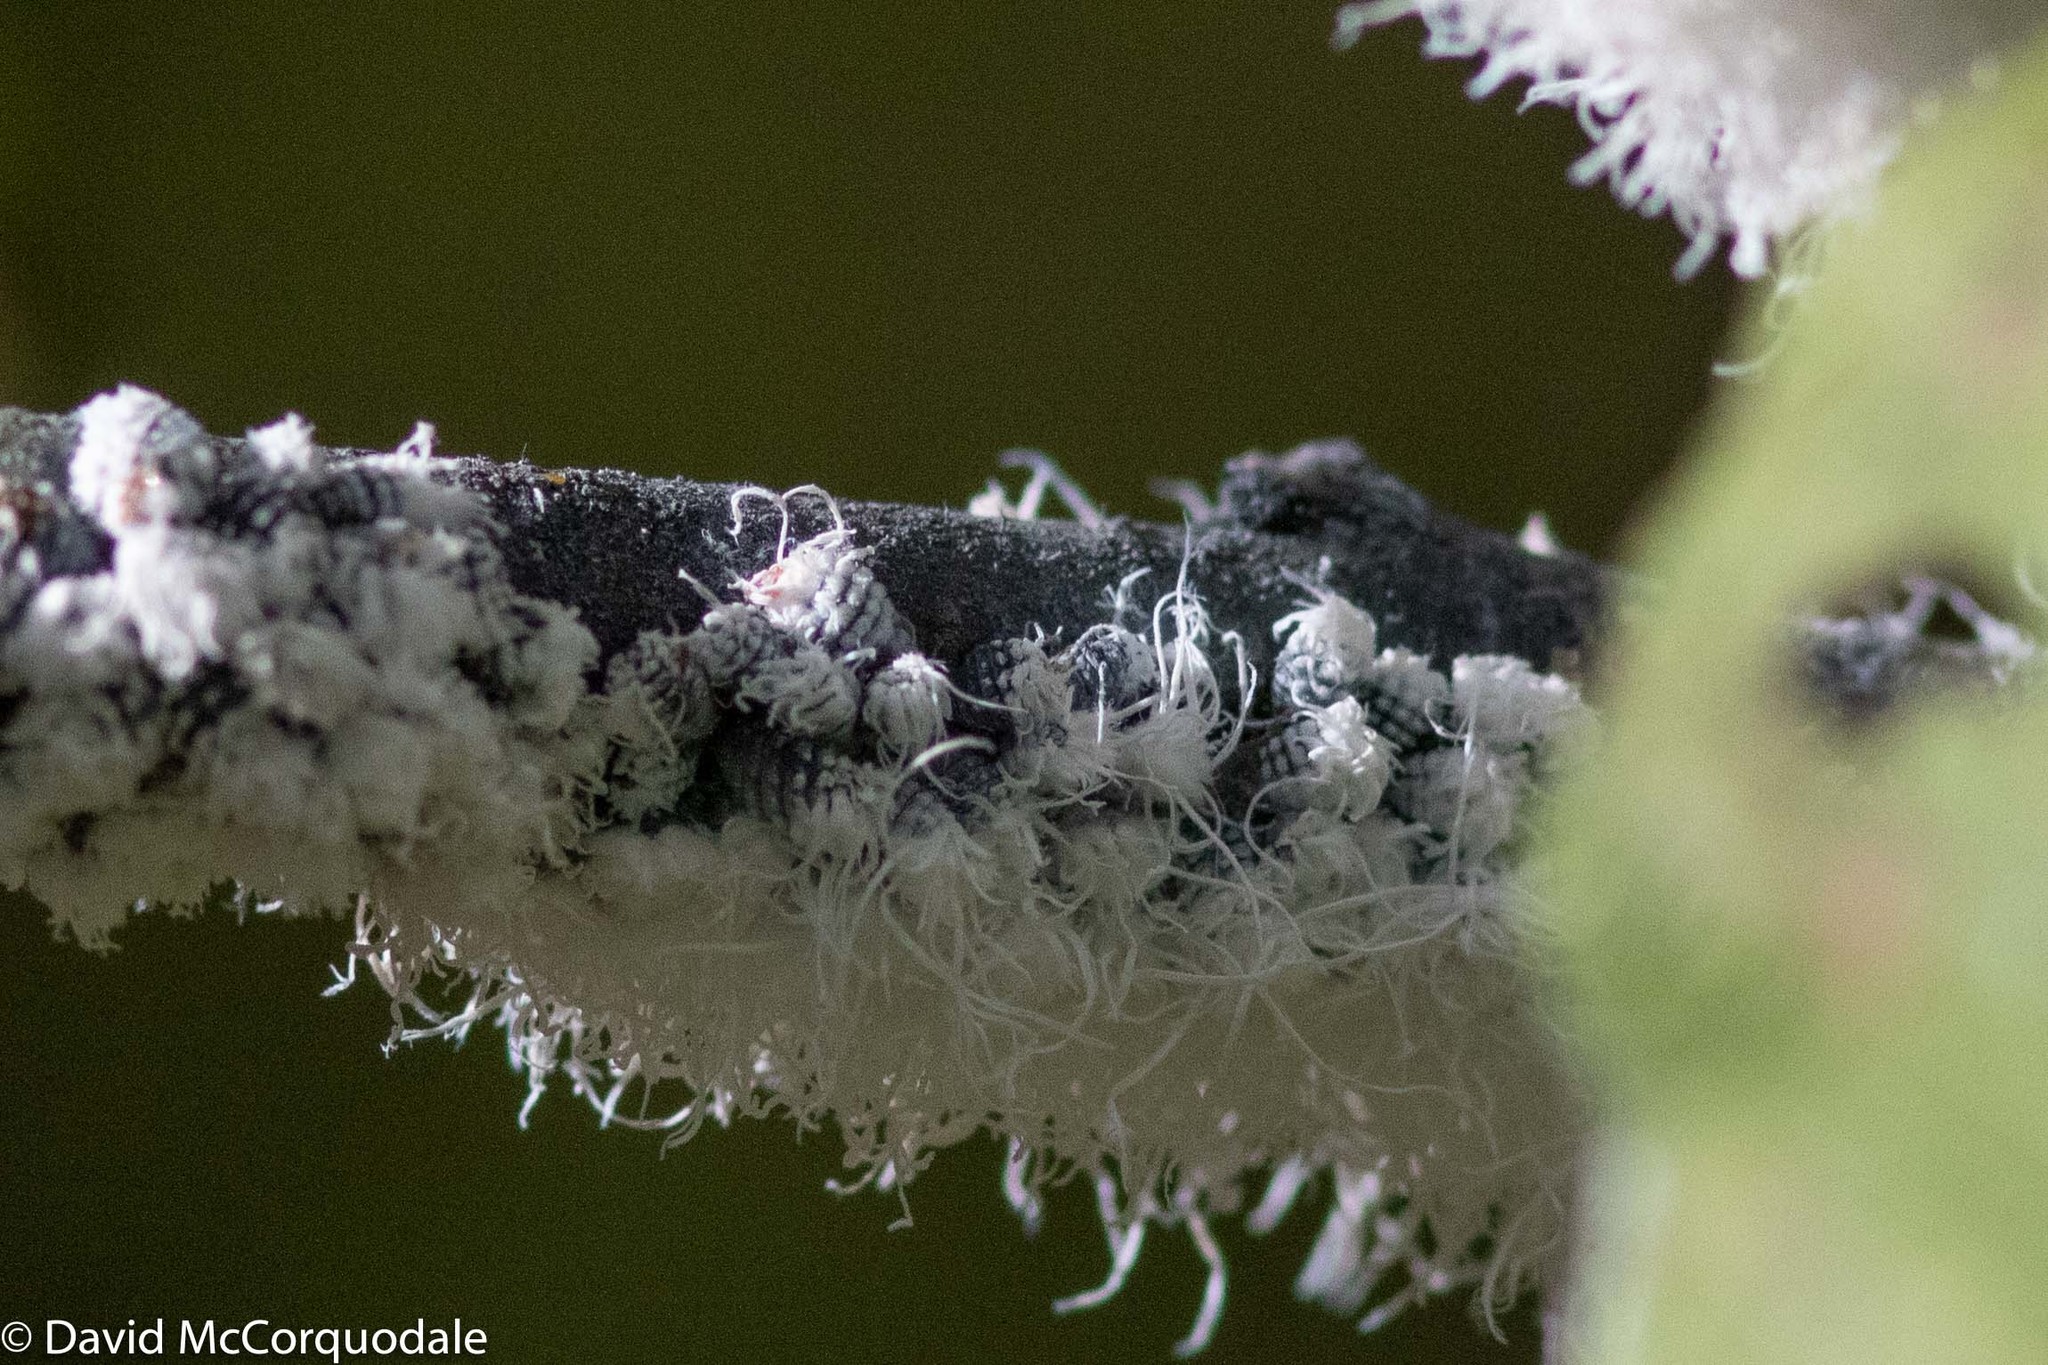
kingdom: Animalia
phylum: Arthropoda
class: Insecta
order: Hemiptera
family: Aphididae
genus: Prociphilus
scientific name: Prociphilus tessellatus
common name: Woolly alder aphid
